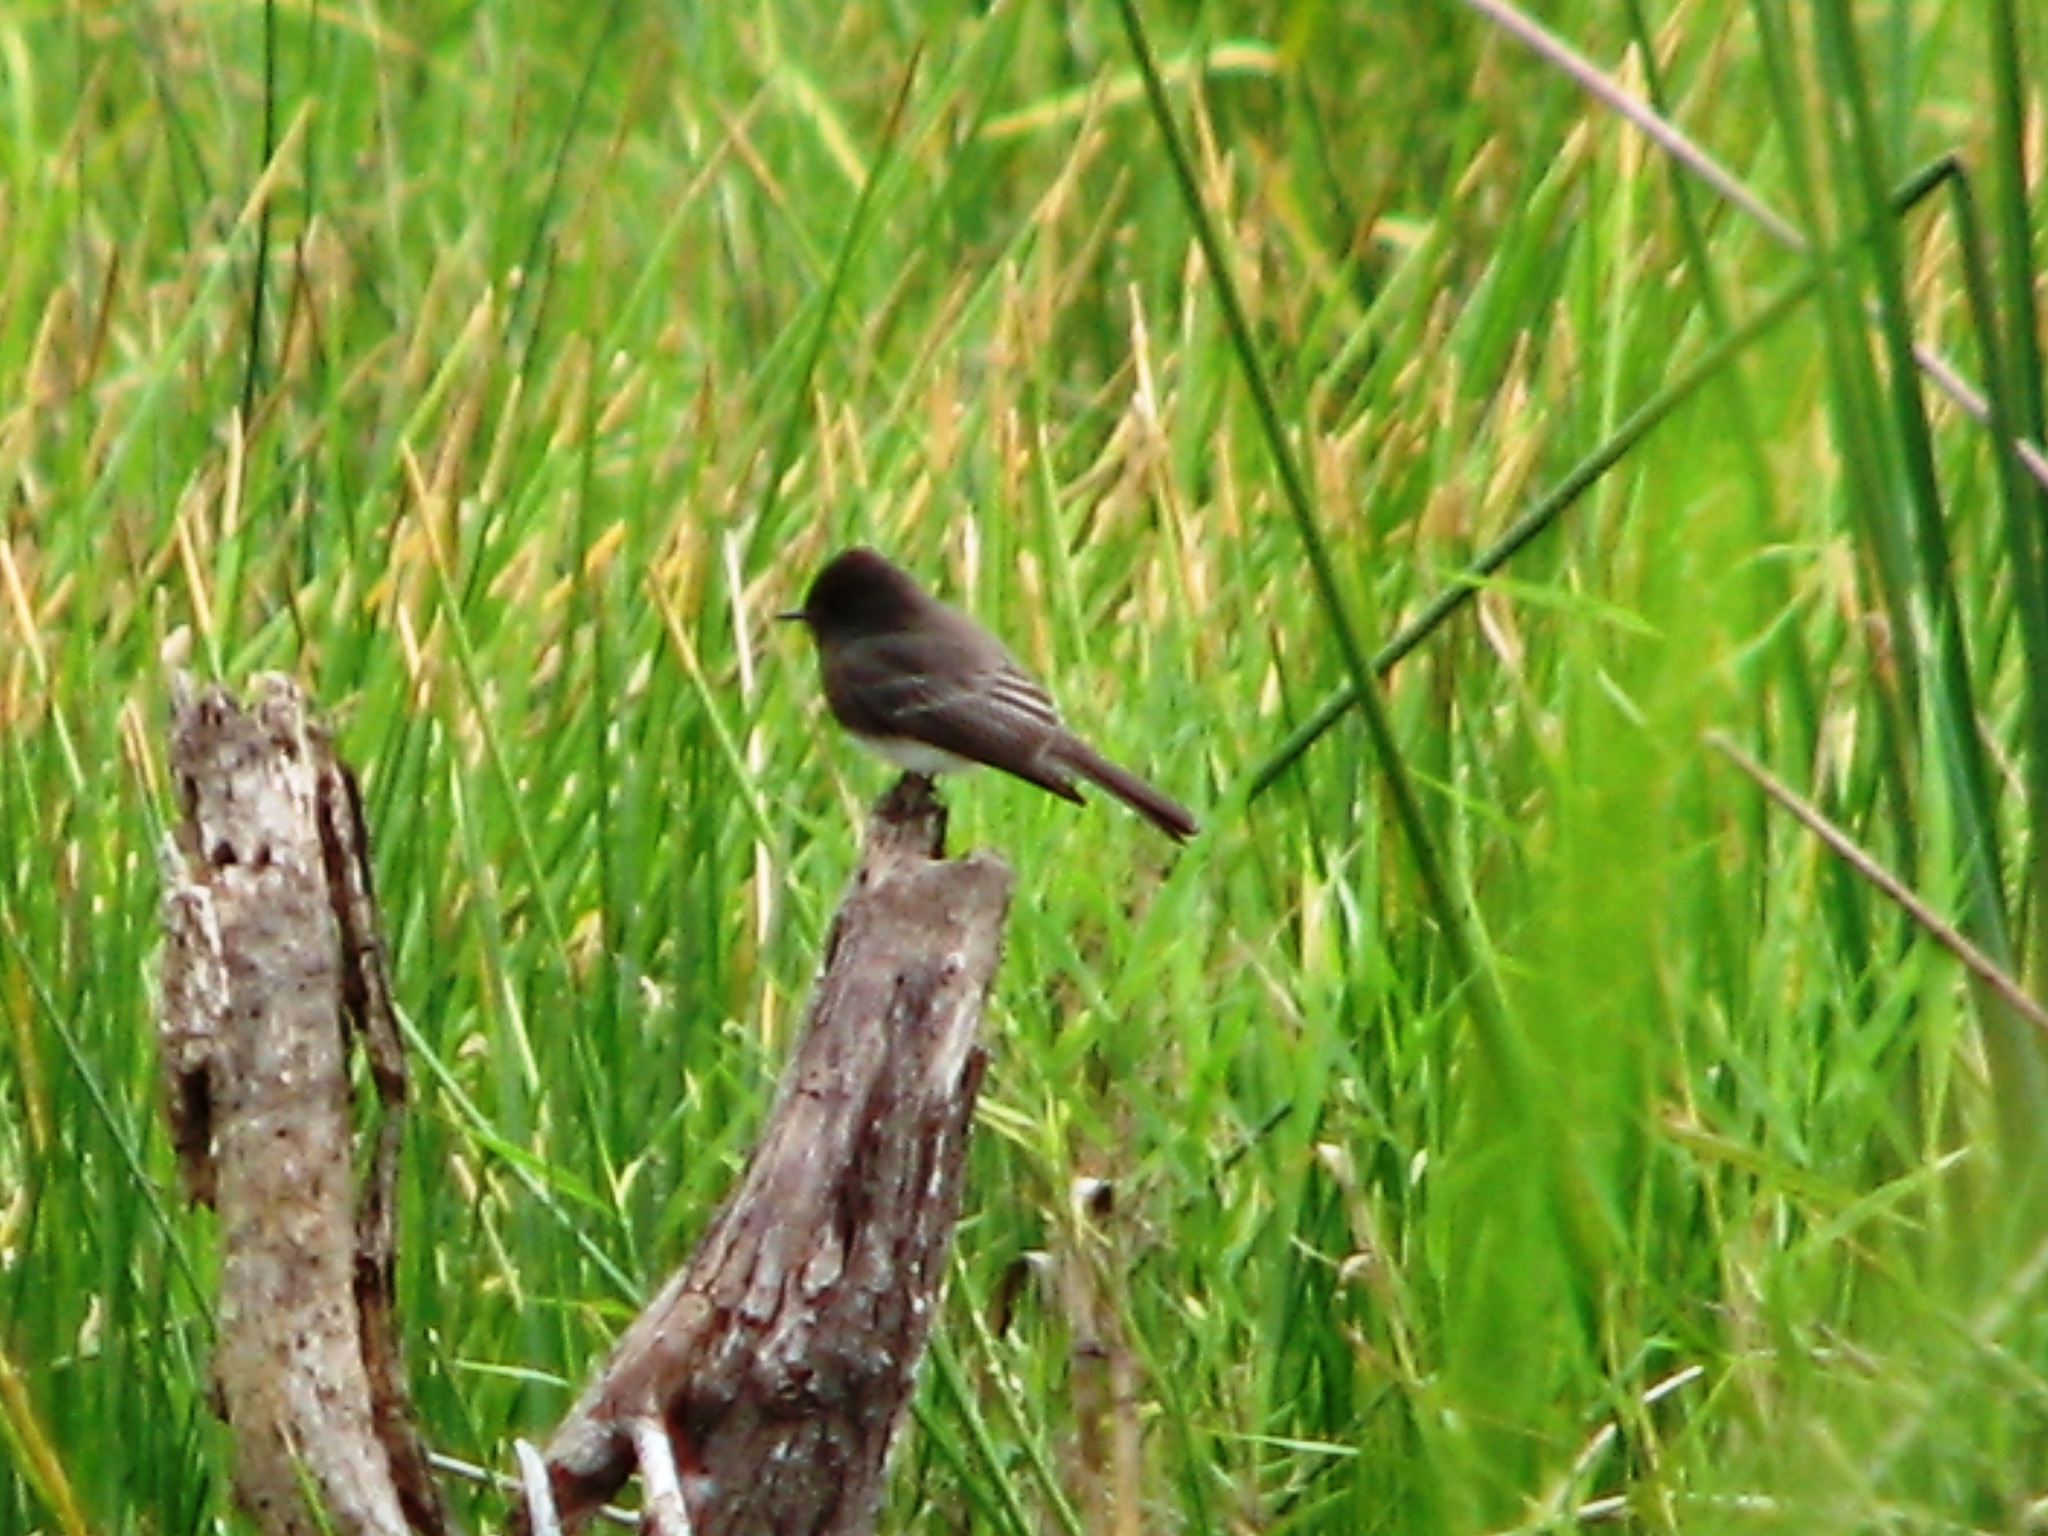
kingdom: Animalia
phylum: Chordata
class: Aves
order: Passeriformes
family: Tyrannidae
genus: Sayornis
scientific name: Sayornis nigricans
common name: Black phoebe
